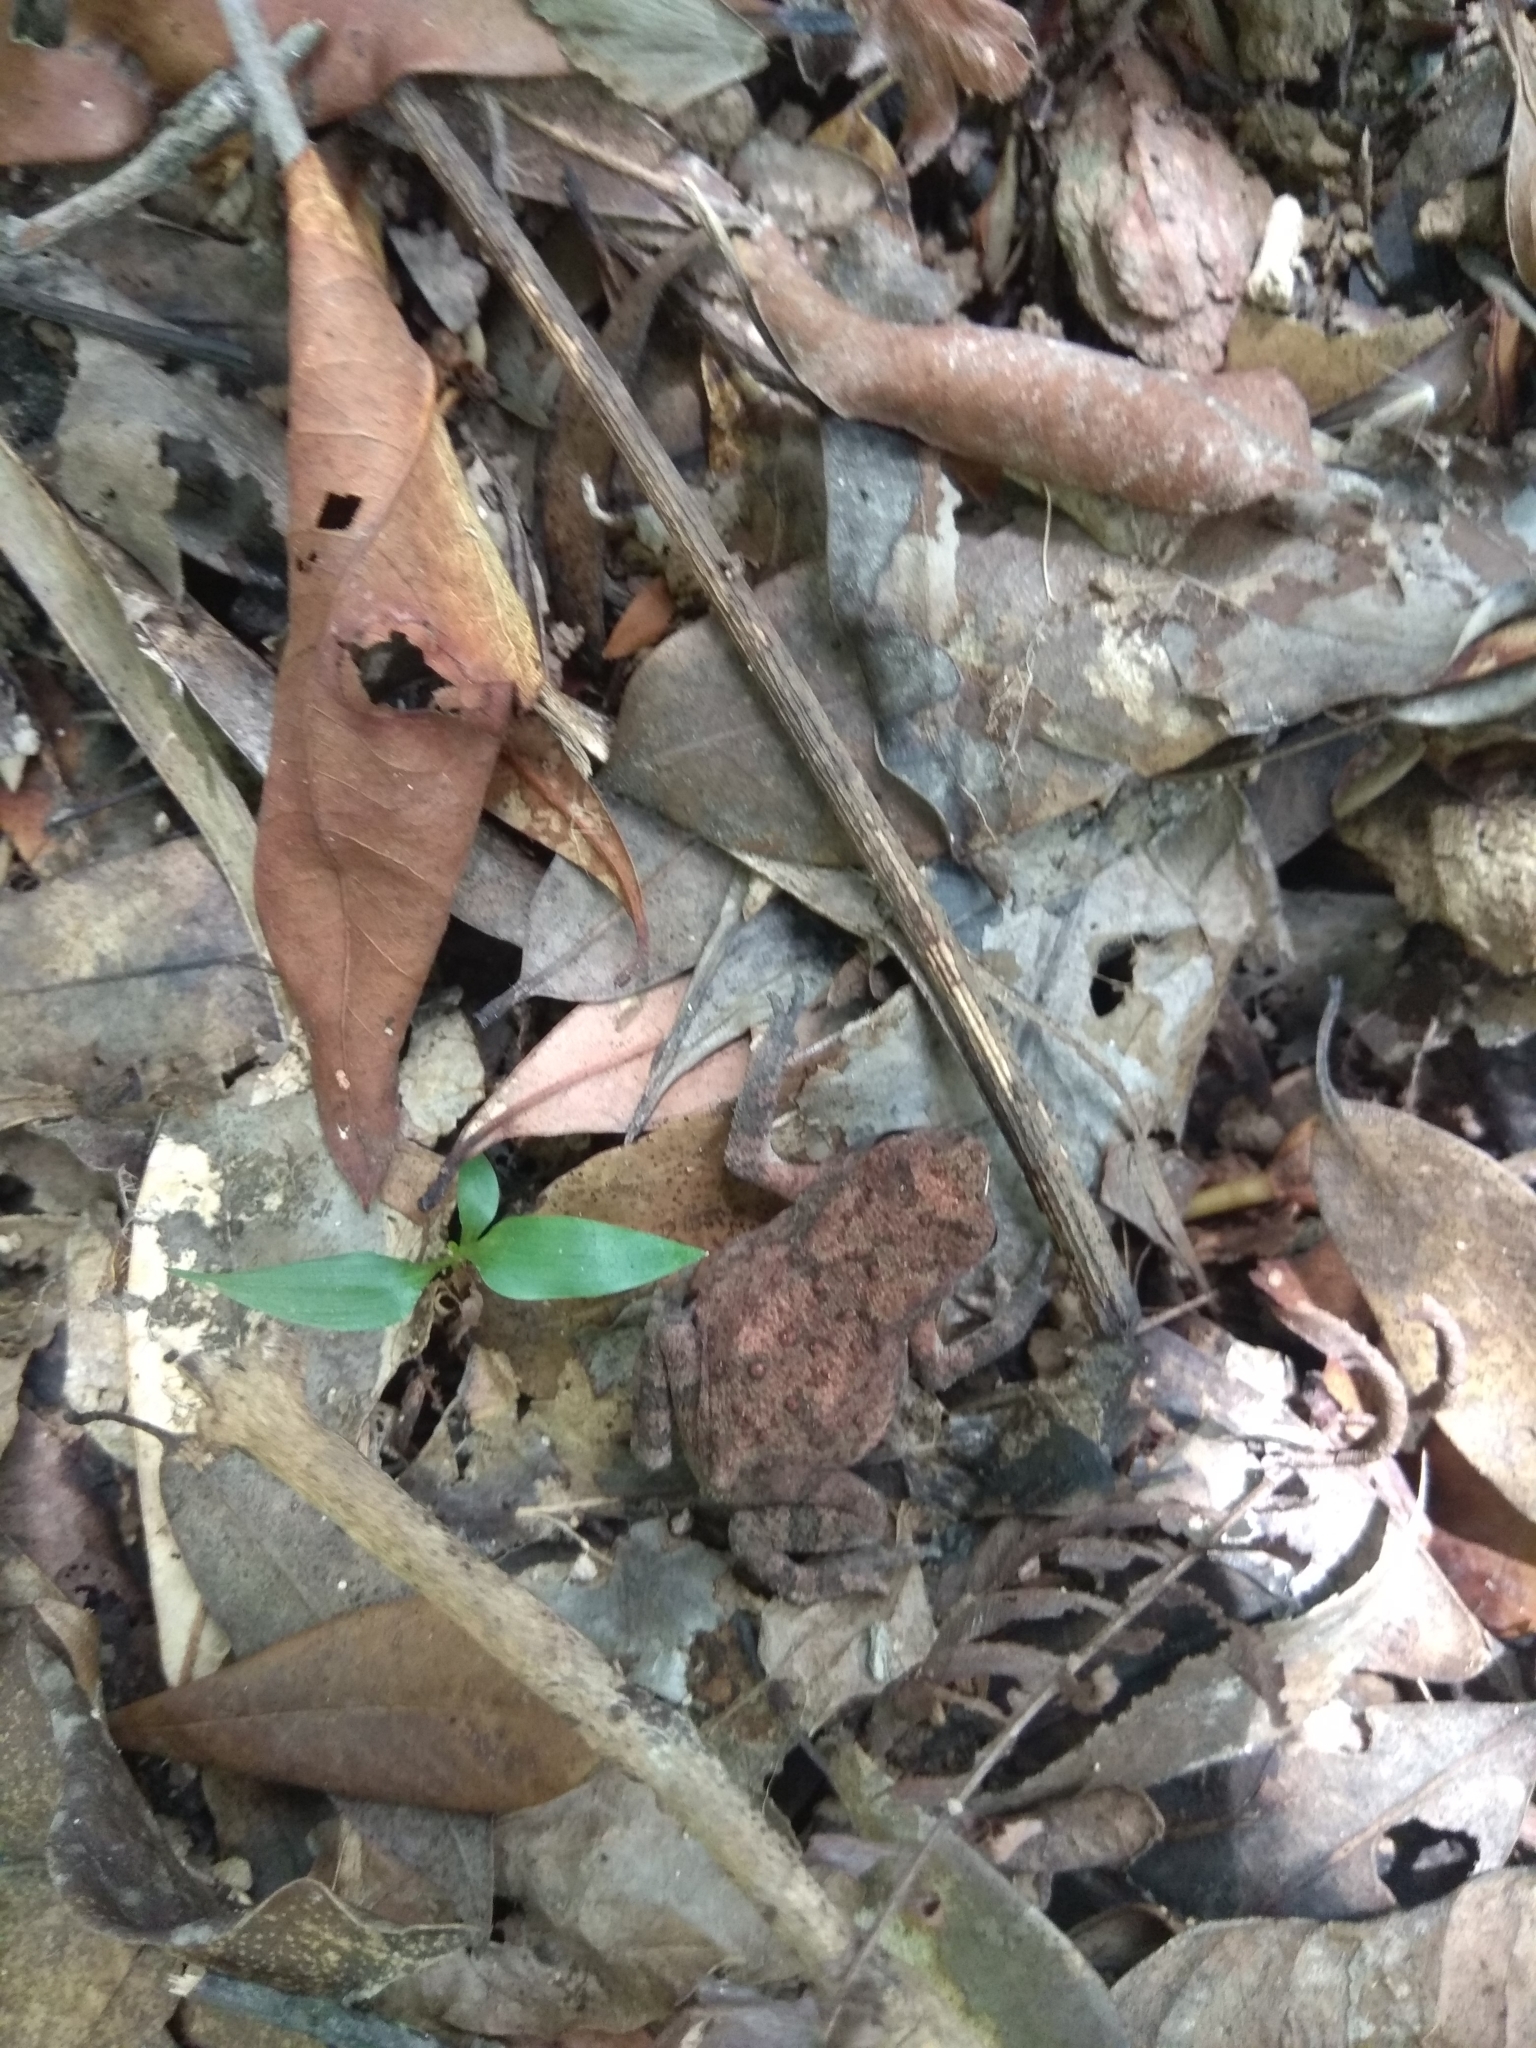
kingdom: Animalia
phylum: Chordata
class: Amphibia
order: Anura
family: Bufonidae
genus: Duttaphrynus
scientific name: Duttaphrynus melanostictus
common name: Common sunda toad
